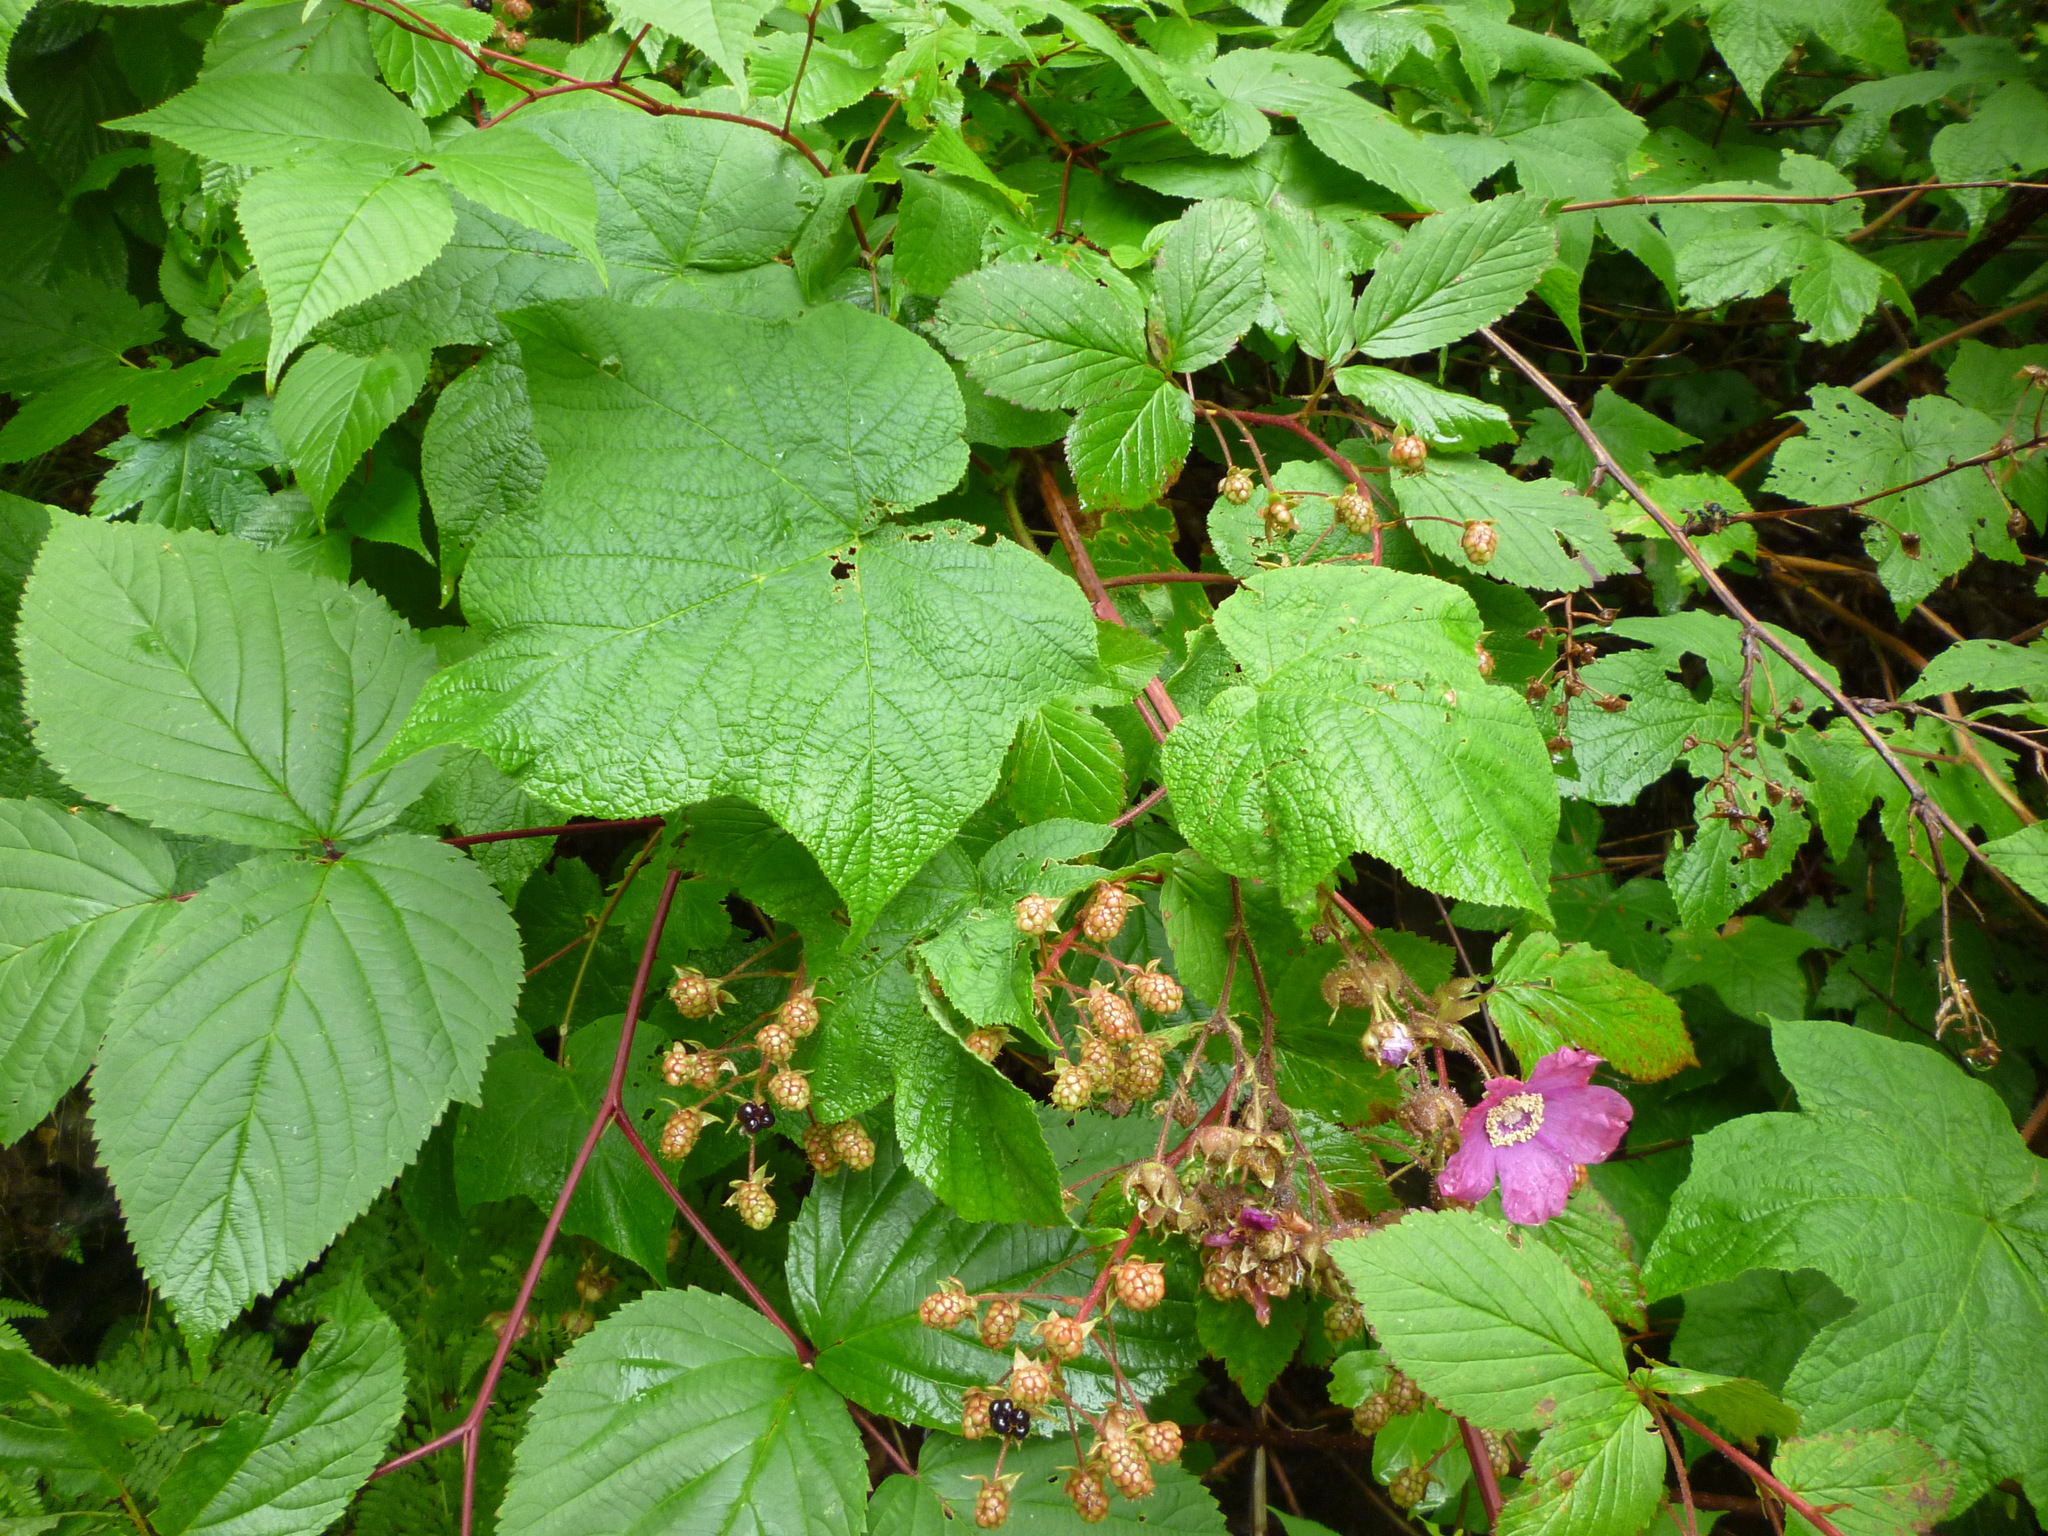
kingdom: Plantae
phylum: Tracheophyta
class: Magnoliopsida
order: Rosales
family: Rosaceae
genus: Rubus
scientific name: Rubus odoratus
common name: Purple-flowered raspberry
